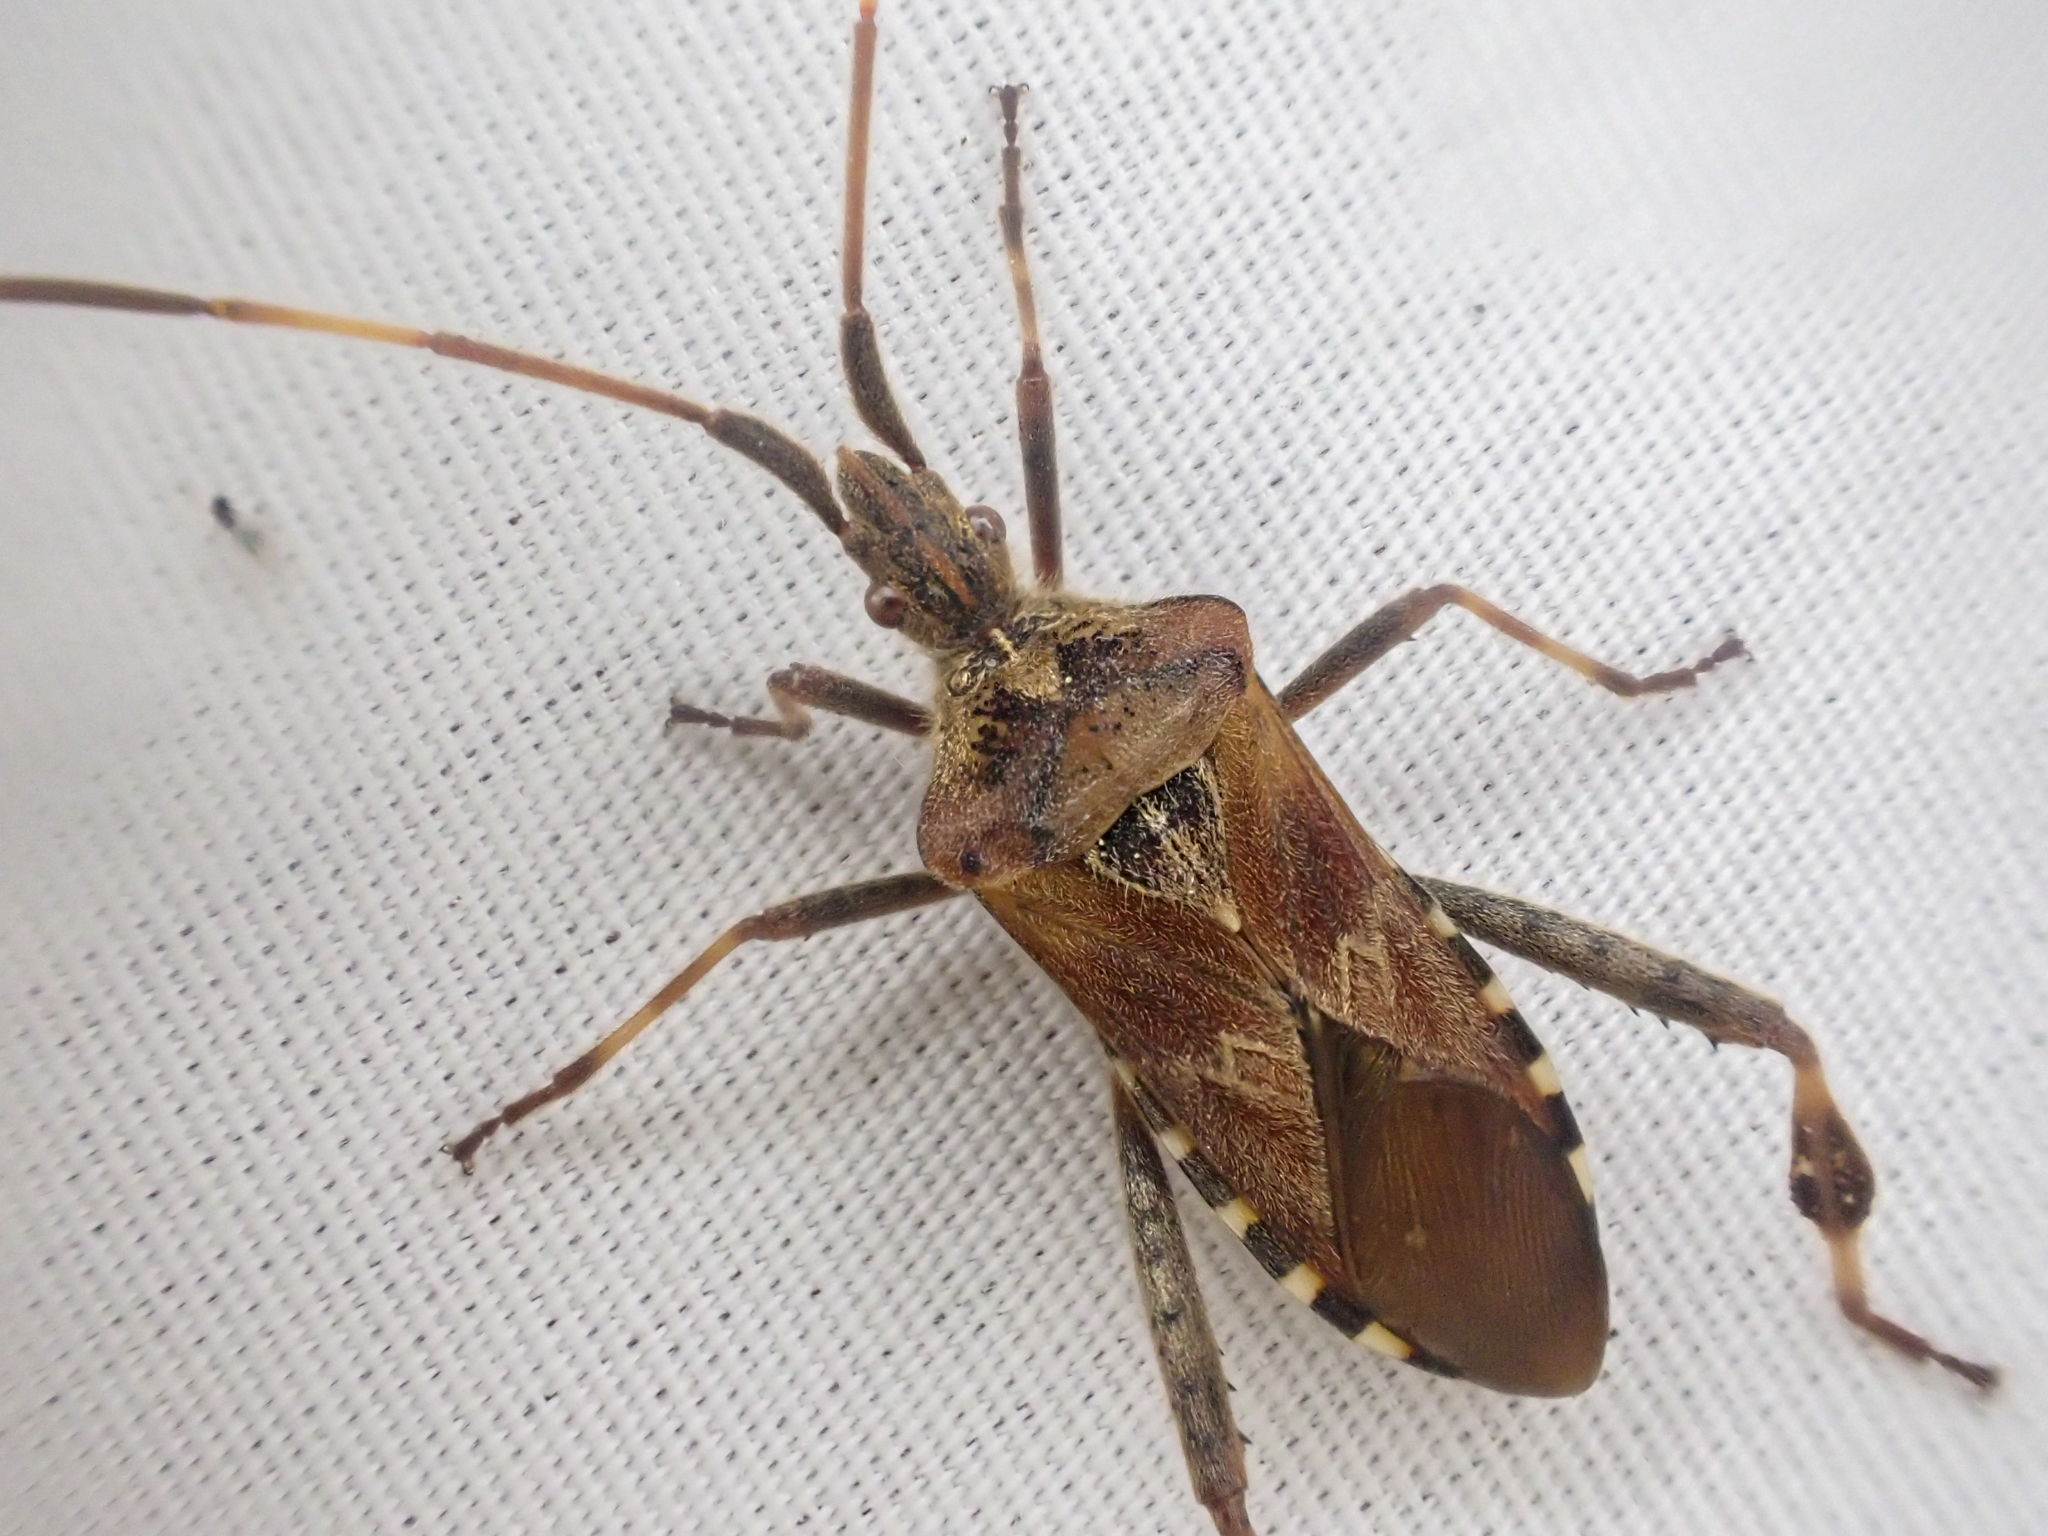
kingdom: Animalia
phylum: Arthropoda
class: Insecta
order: Hemiptera
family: Coreidae
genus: Leptoglossus
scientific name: Leptoglossus occidentalis
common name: Western conifer-seed bug
